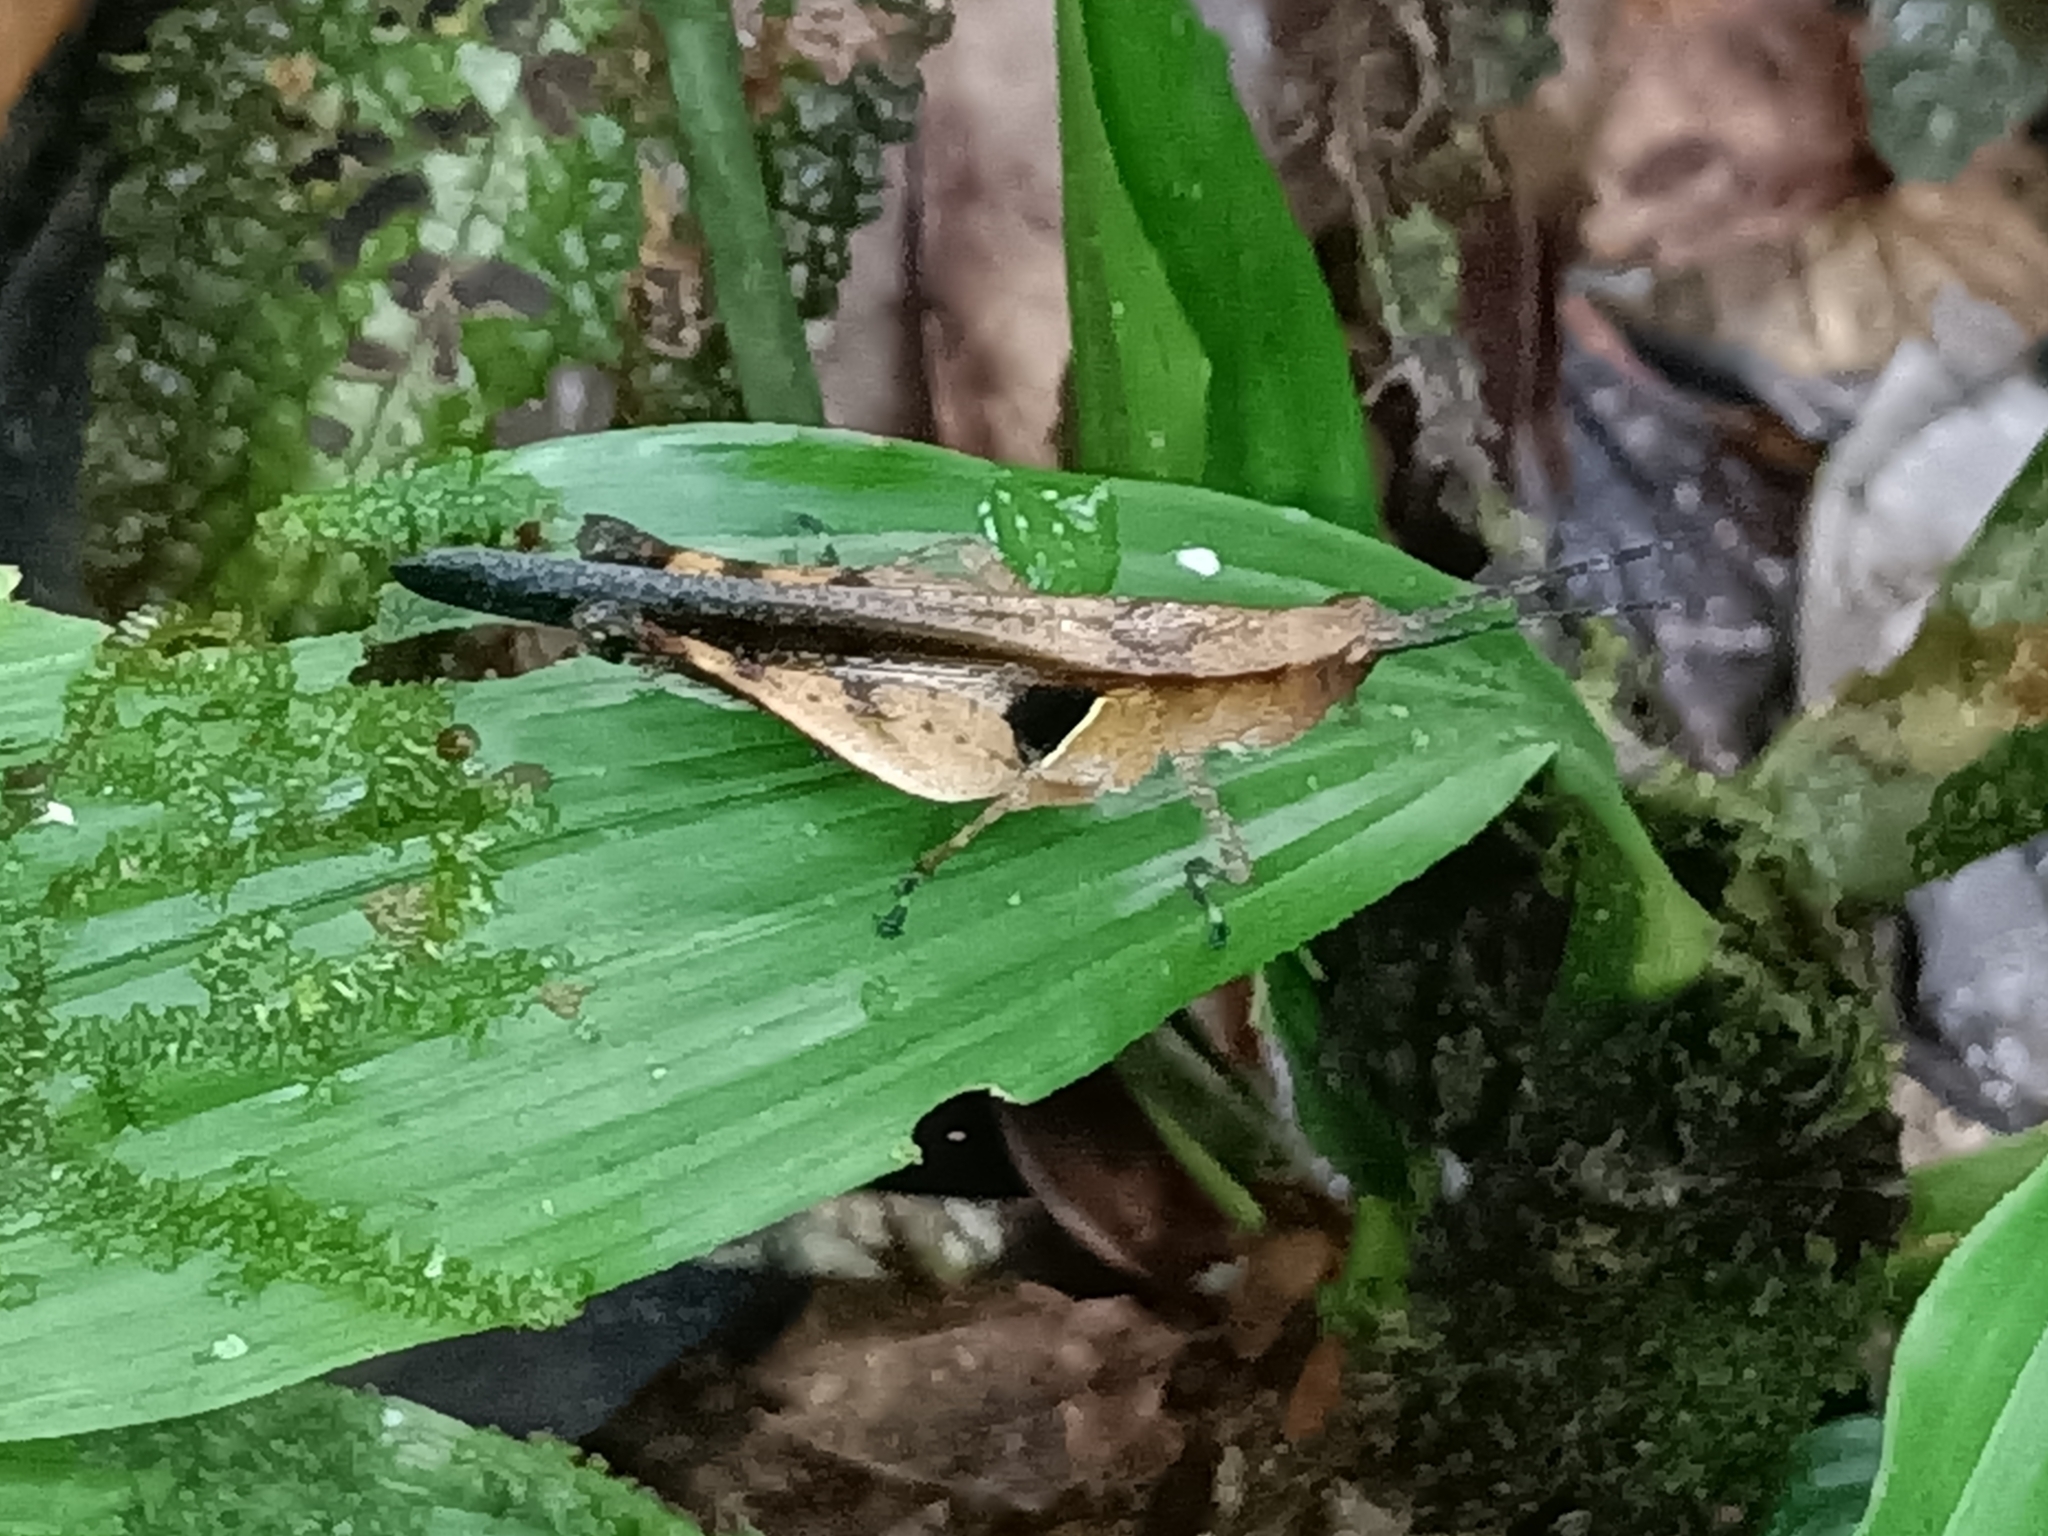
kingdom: Animalia
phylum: Arthropoda
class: Insecta
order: Orthoptera
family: Acrididae
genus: Xiphiola
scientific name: Xiphiola cyanoptera
